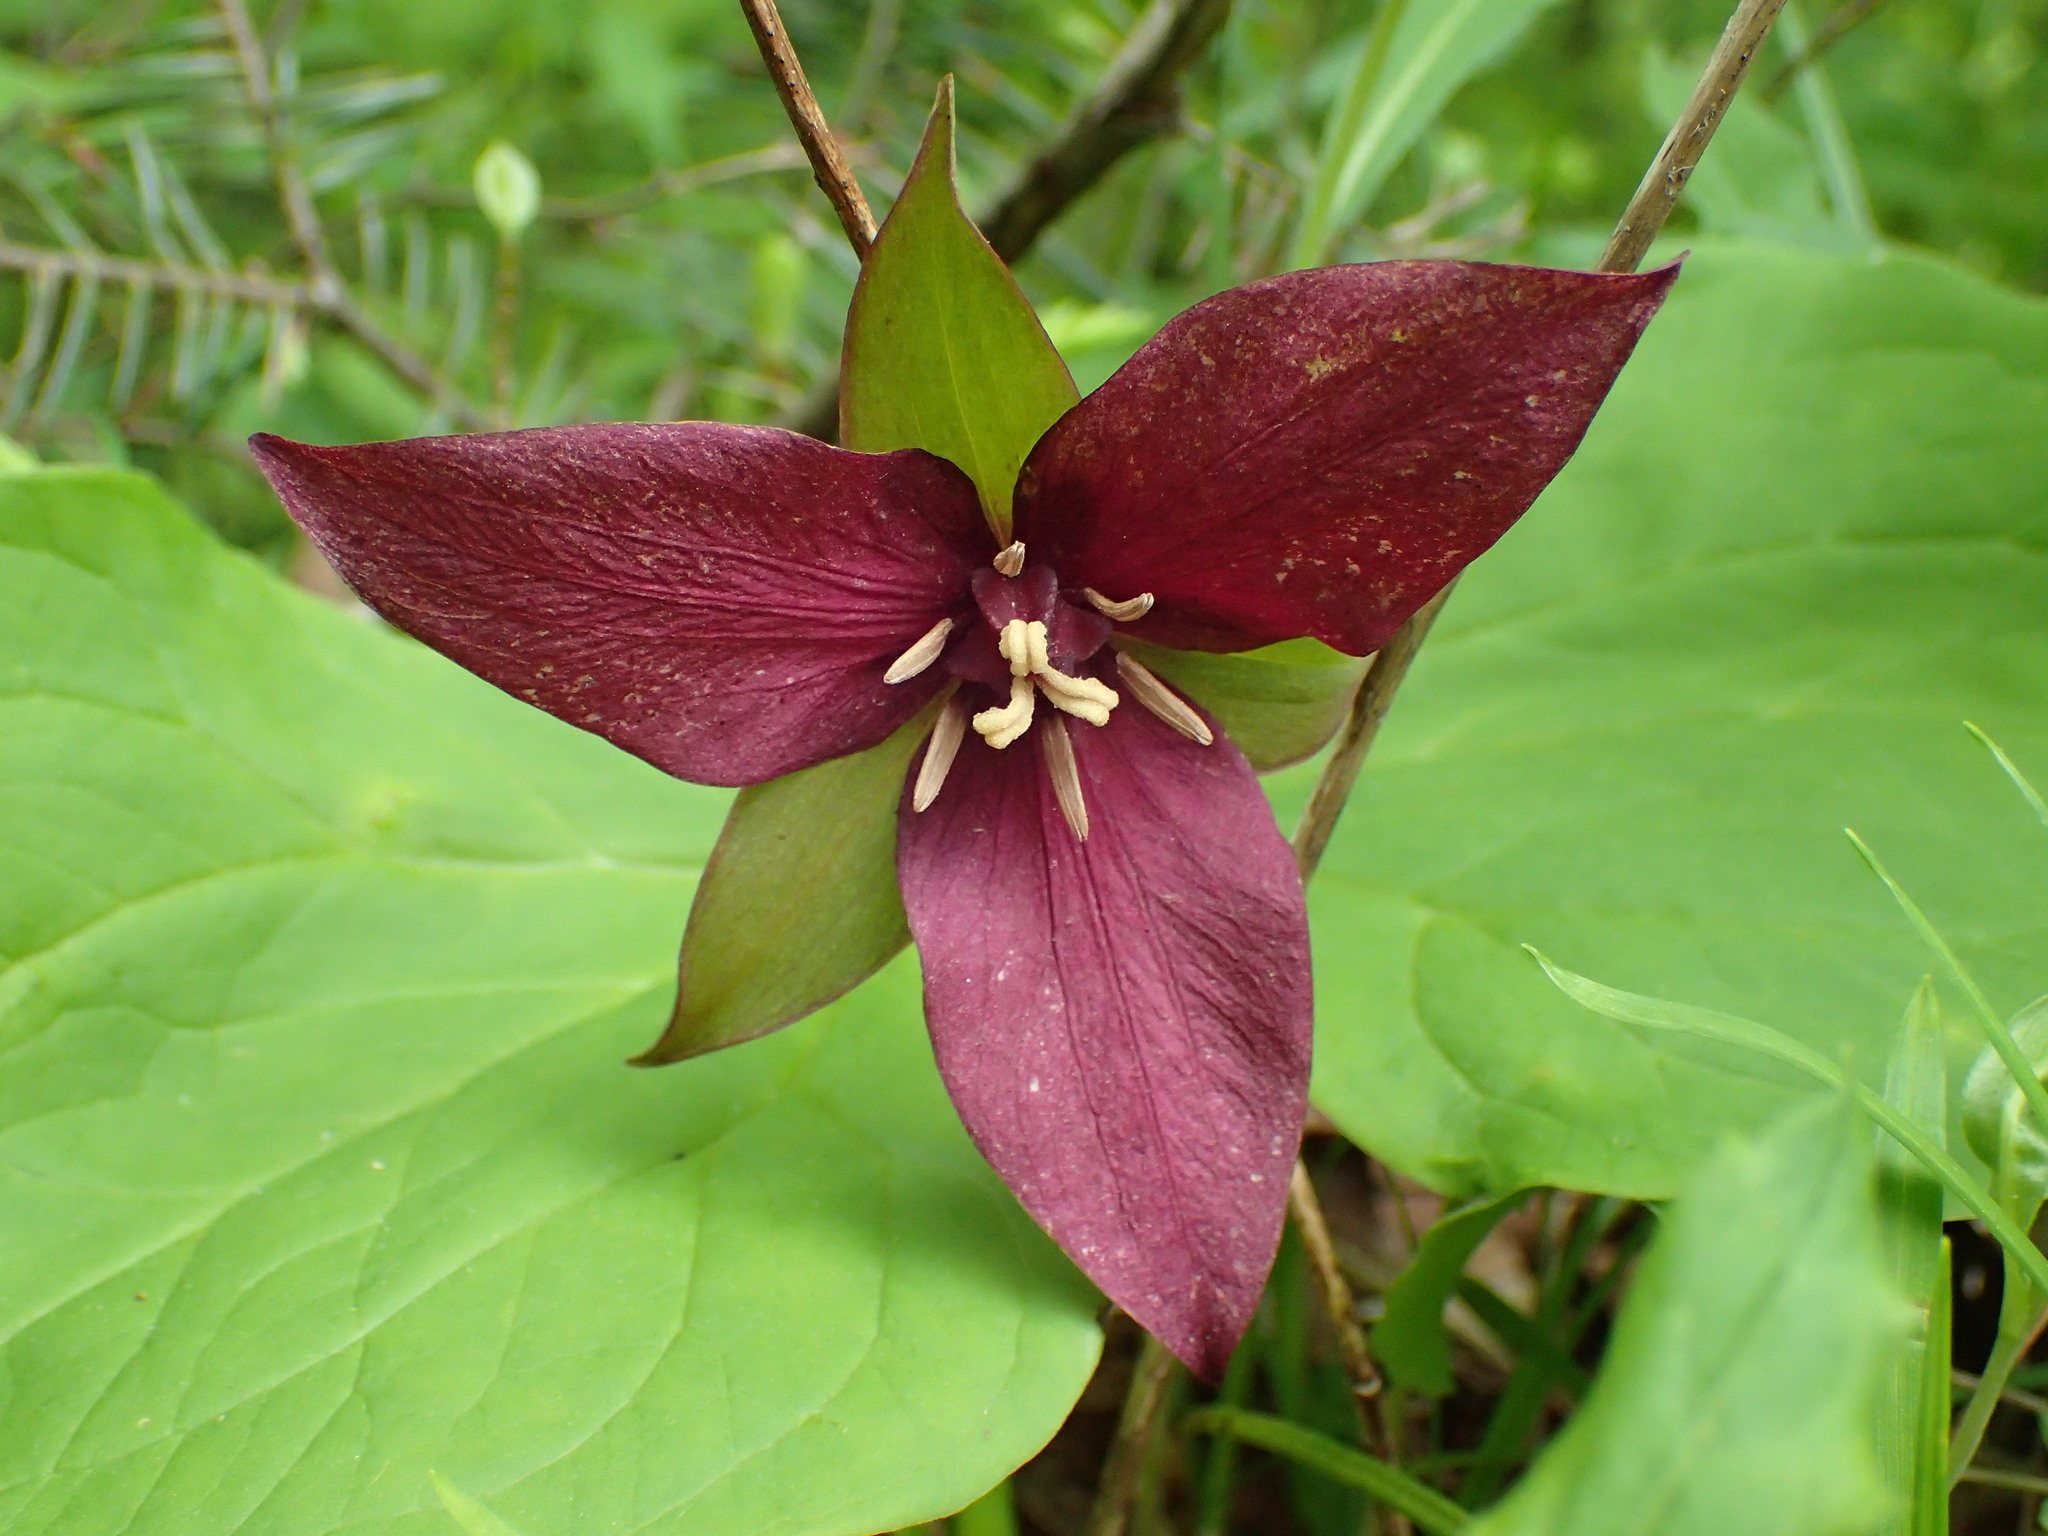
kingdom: Plantae
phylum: Tracheophyta
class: Liliopsida
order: Liliales
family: Melanthiaceae
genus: Trillium
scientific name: Trillium erectum
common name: Purple trillium
